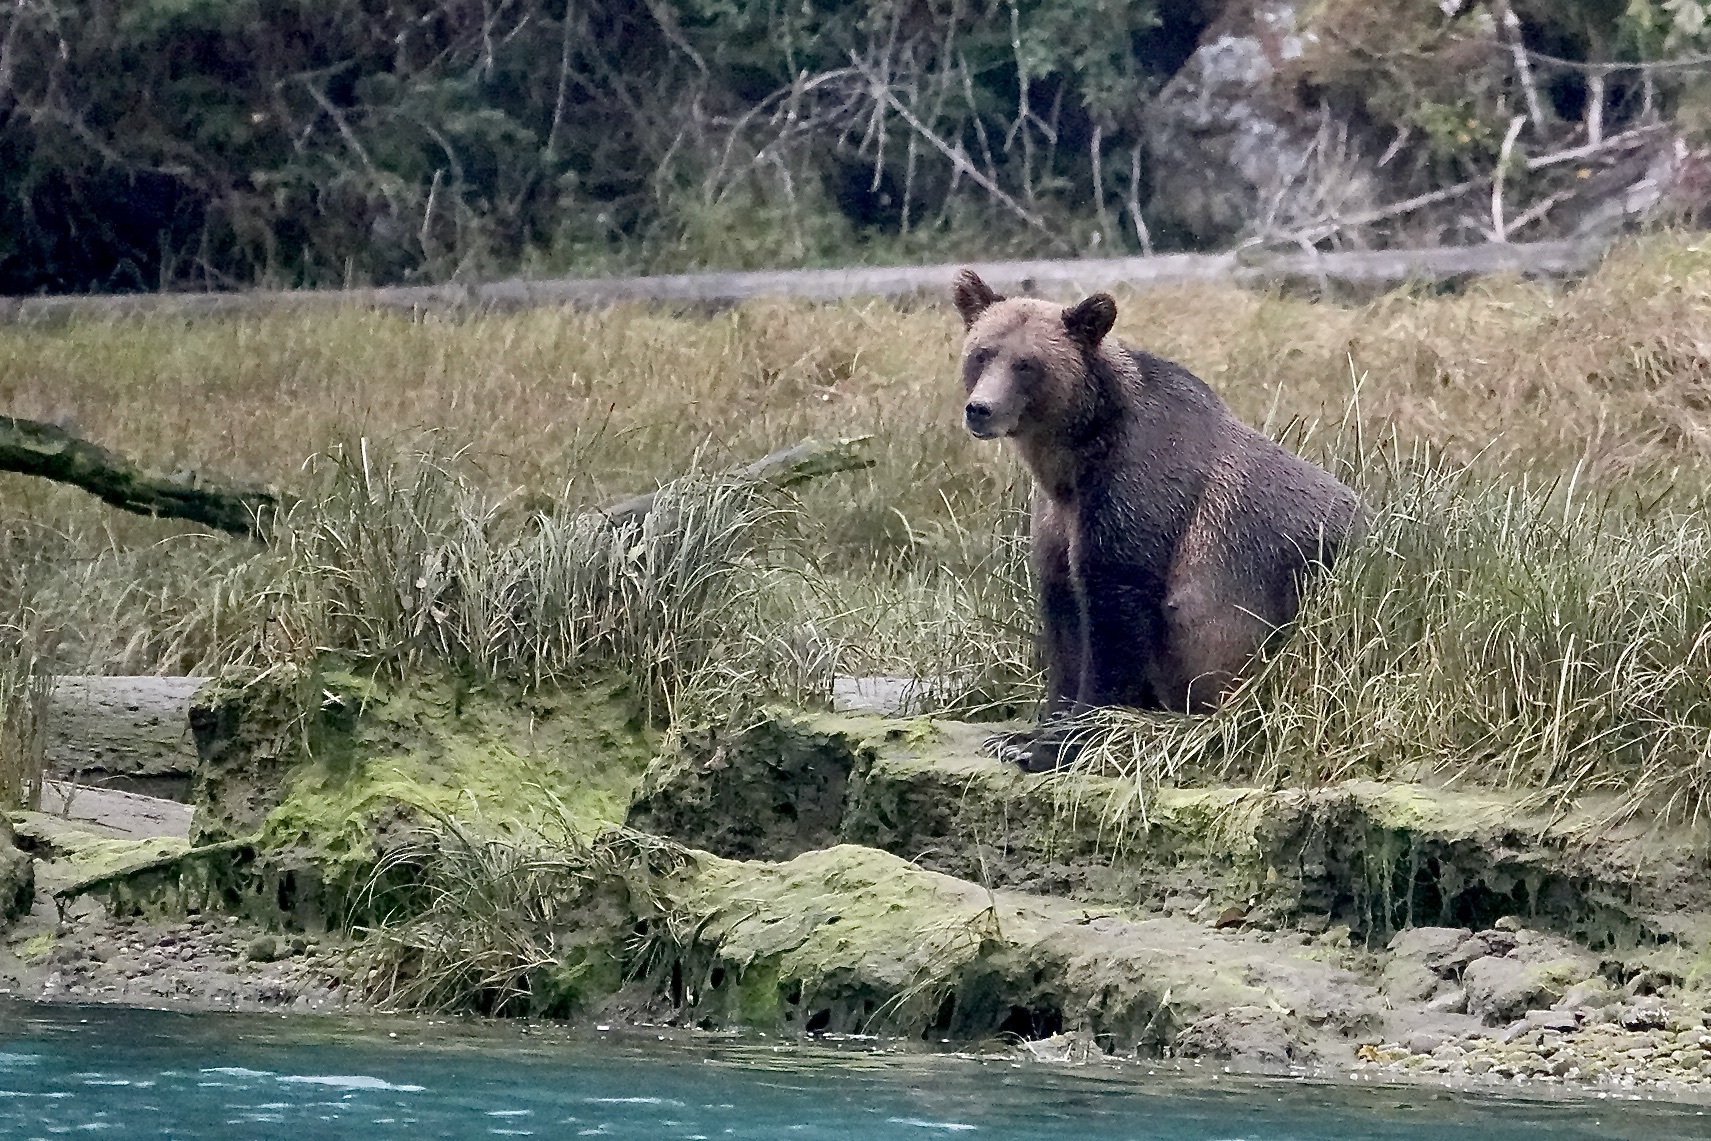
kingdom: Animalia
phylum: Chordata
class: Mammalia
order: Carnivora
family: Ursidae
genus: Ursus
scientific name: Ursus arctos
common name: Brown bear
